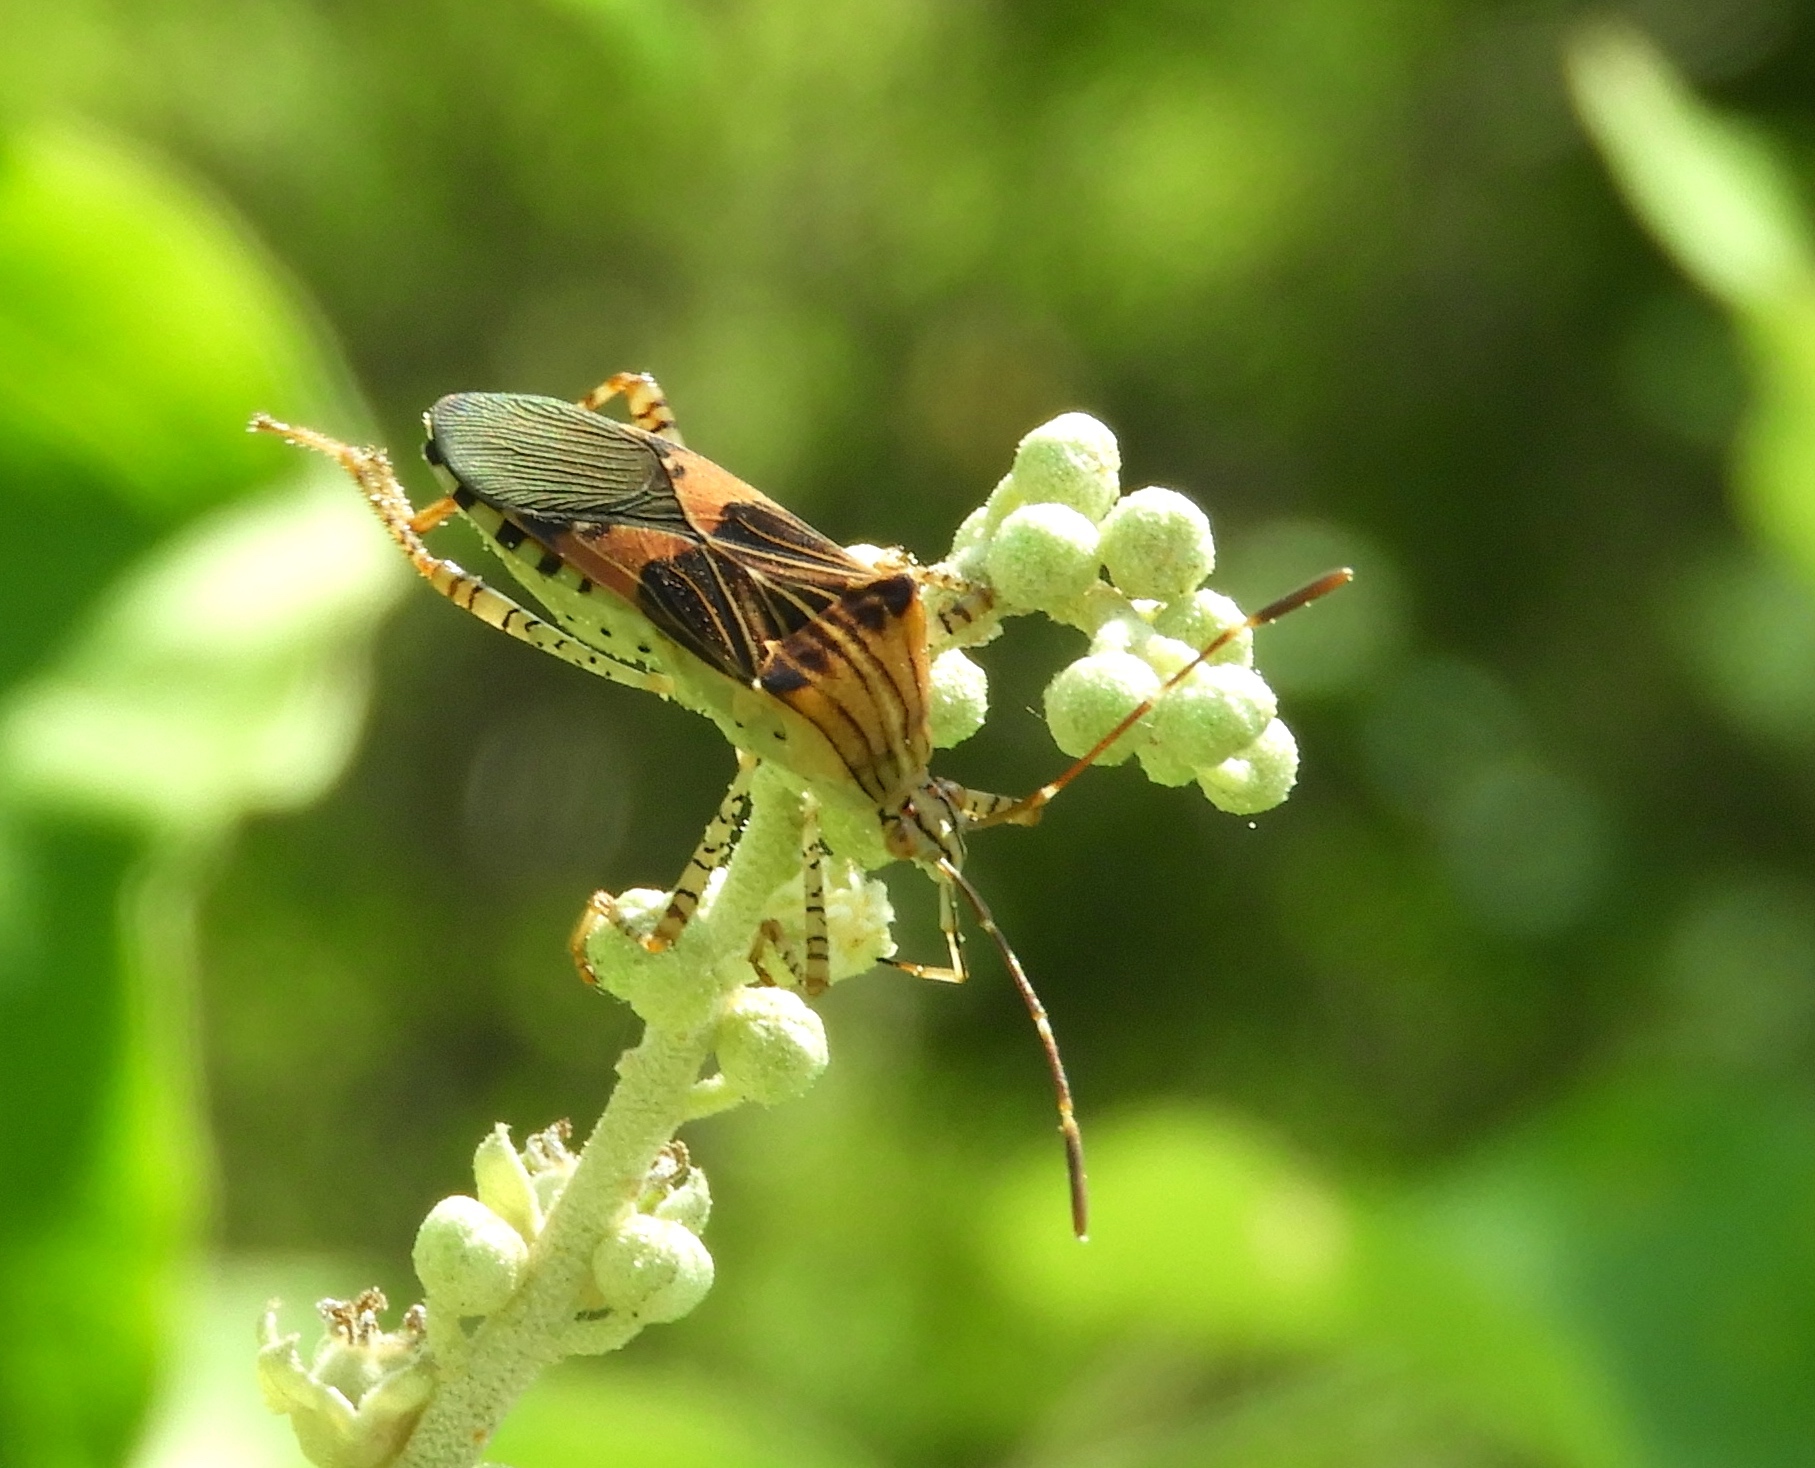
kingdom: Animalia
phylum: Arthropoda
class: Insecta
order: Hemiptera
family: Coreidae
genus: Hypselonotus
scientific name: Hypselonotus punctiventris
